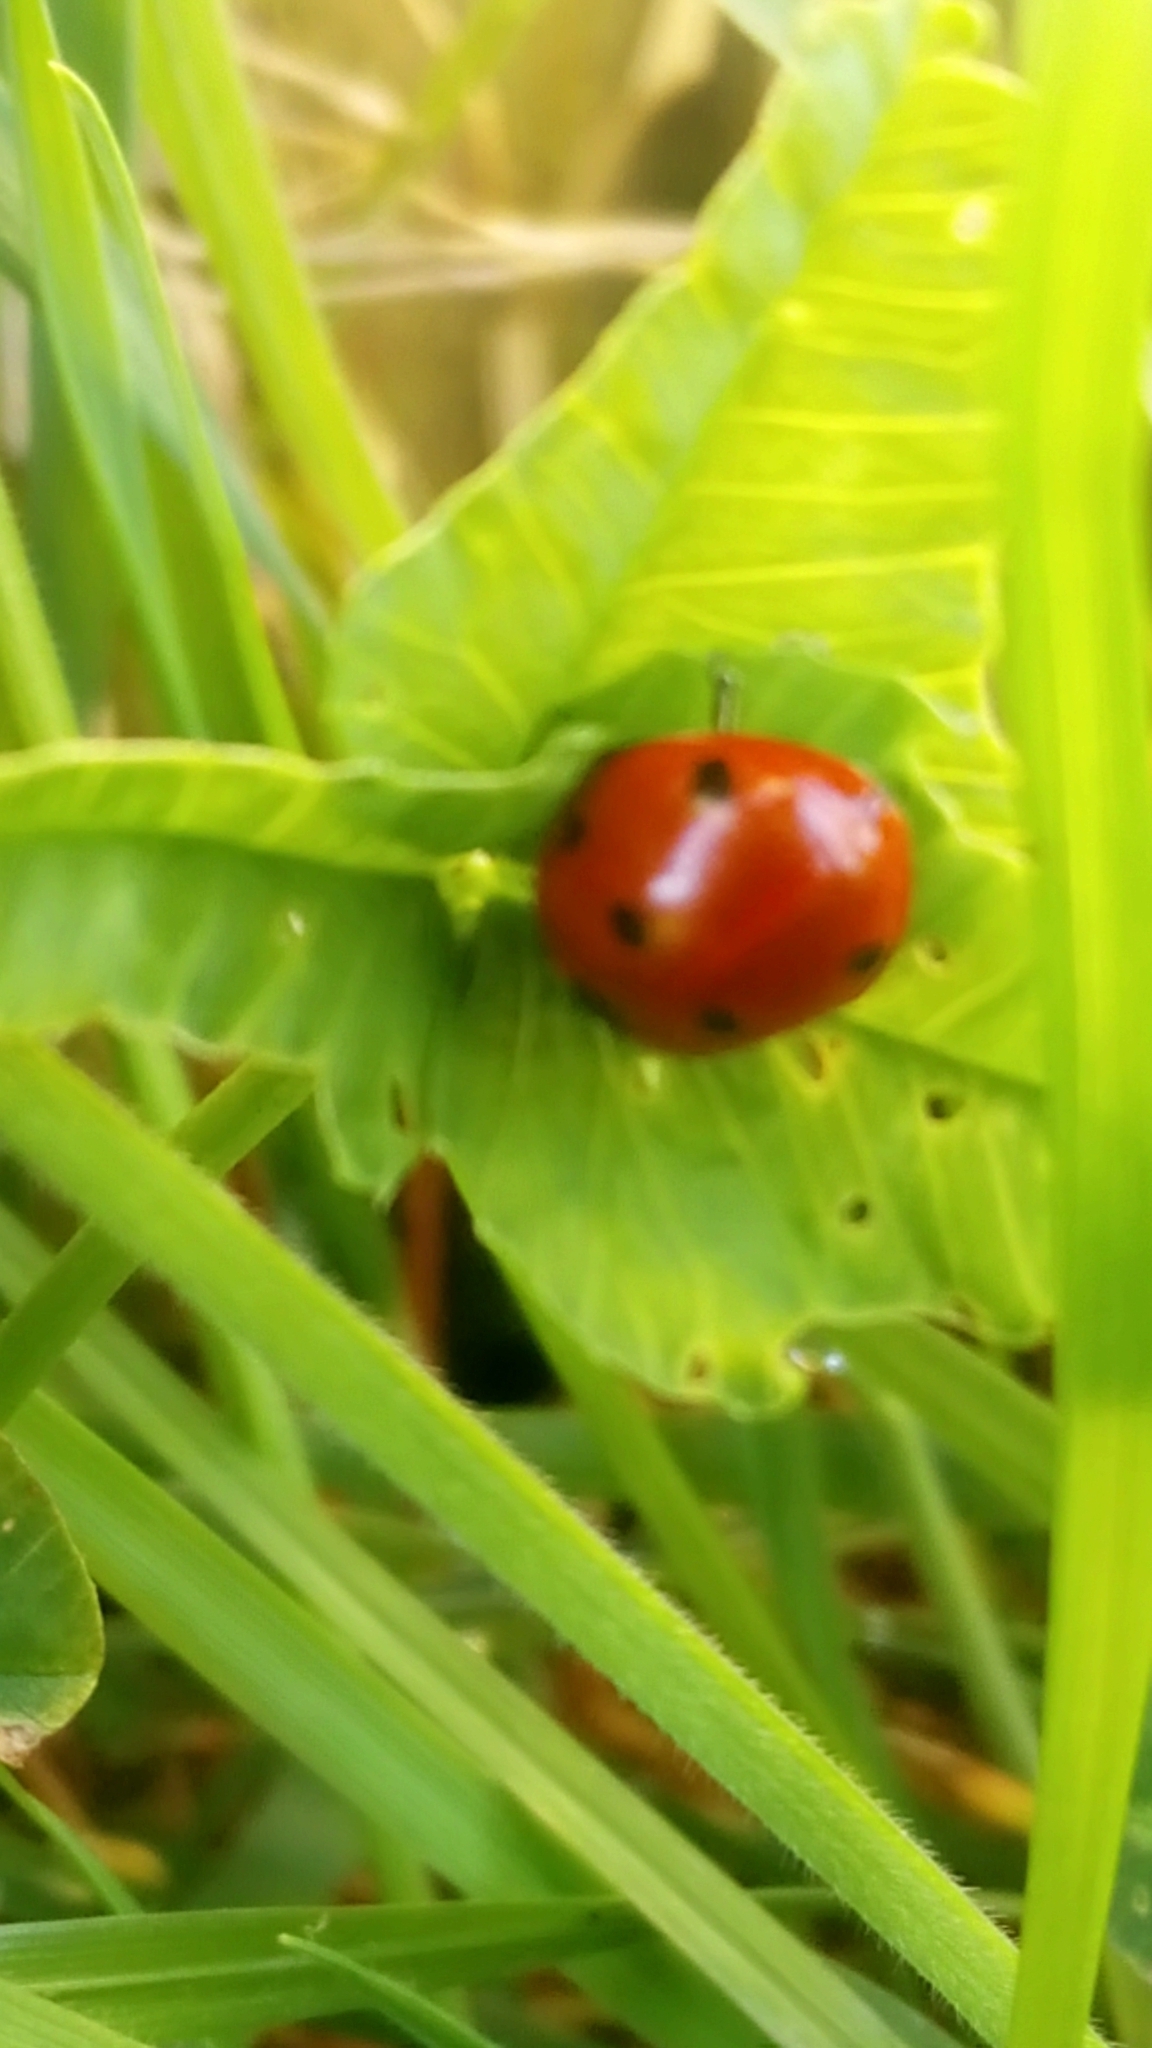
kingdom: Animalia
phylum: Arthropoda
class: Insecta
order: Coleoptera
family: Coccinellidae
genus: Coccinella
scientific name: Coccinella septempunctata
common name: Sevenspotted lady beetle
